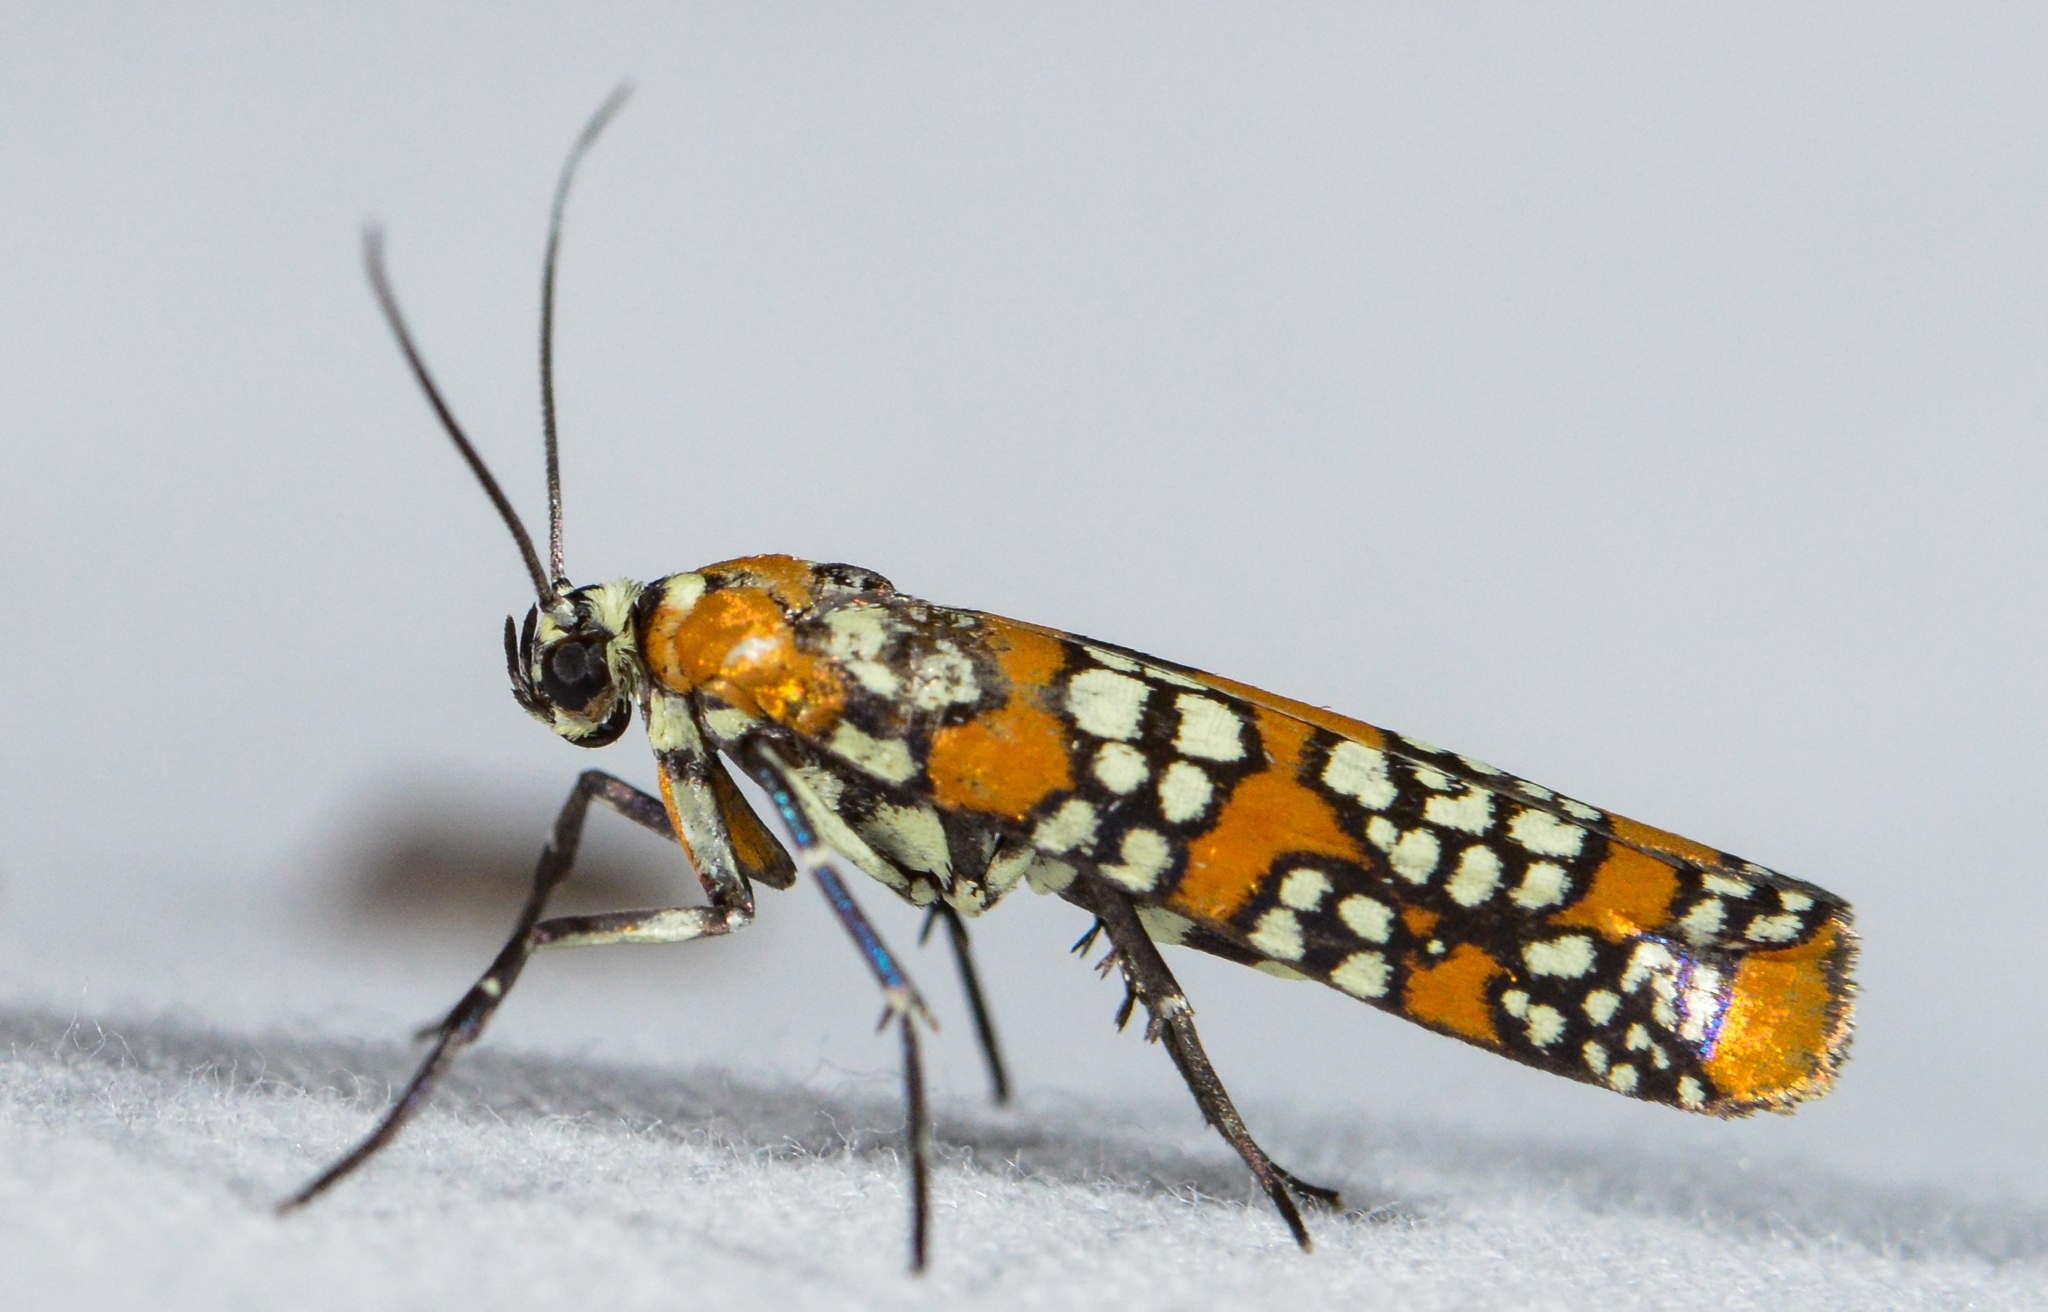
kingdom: Animalia
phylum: Arthropoda
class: Insecta
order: Lepidoptera
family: Attevidae
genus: Atteva
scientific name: Atteva punctella
